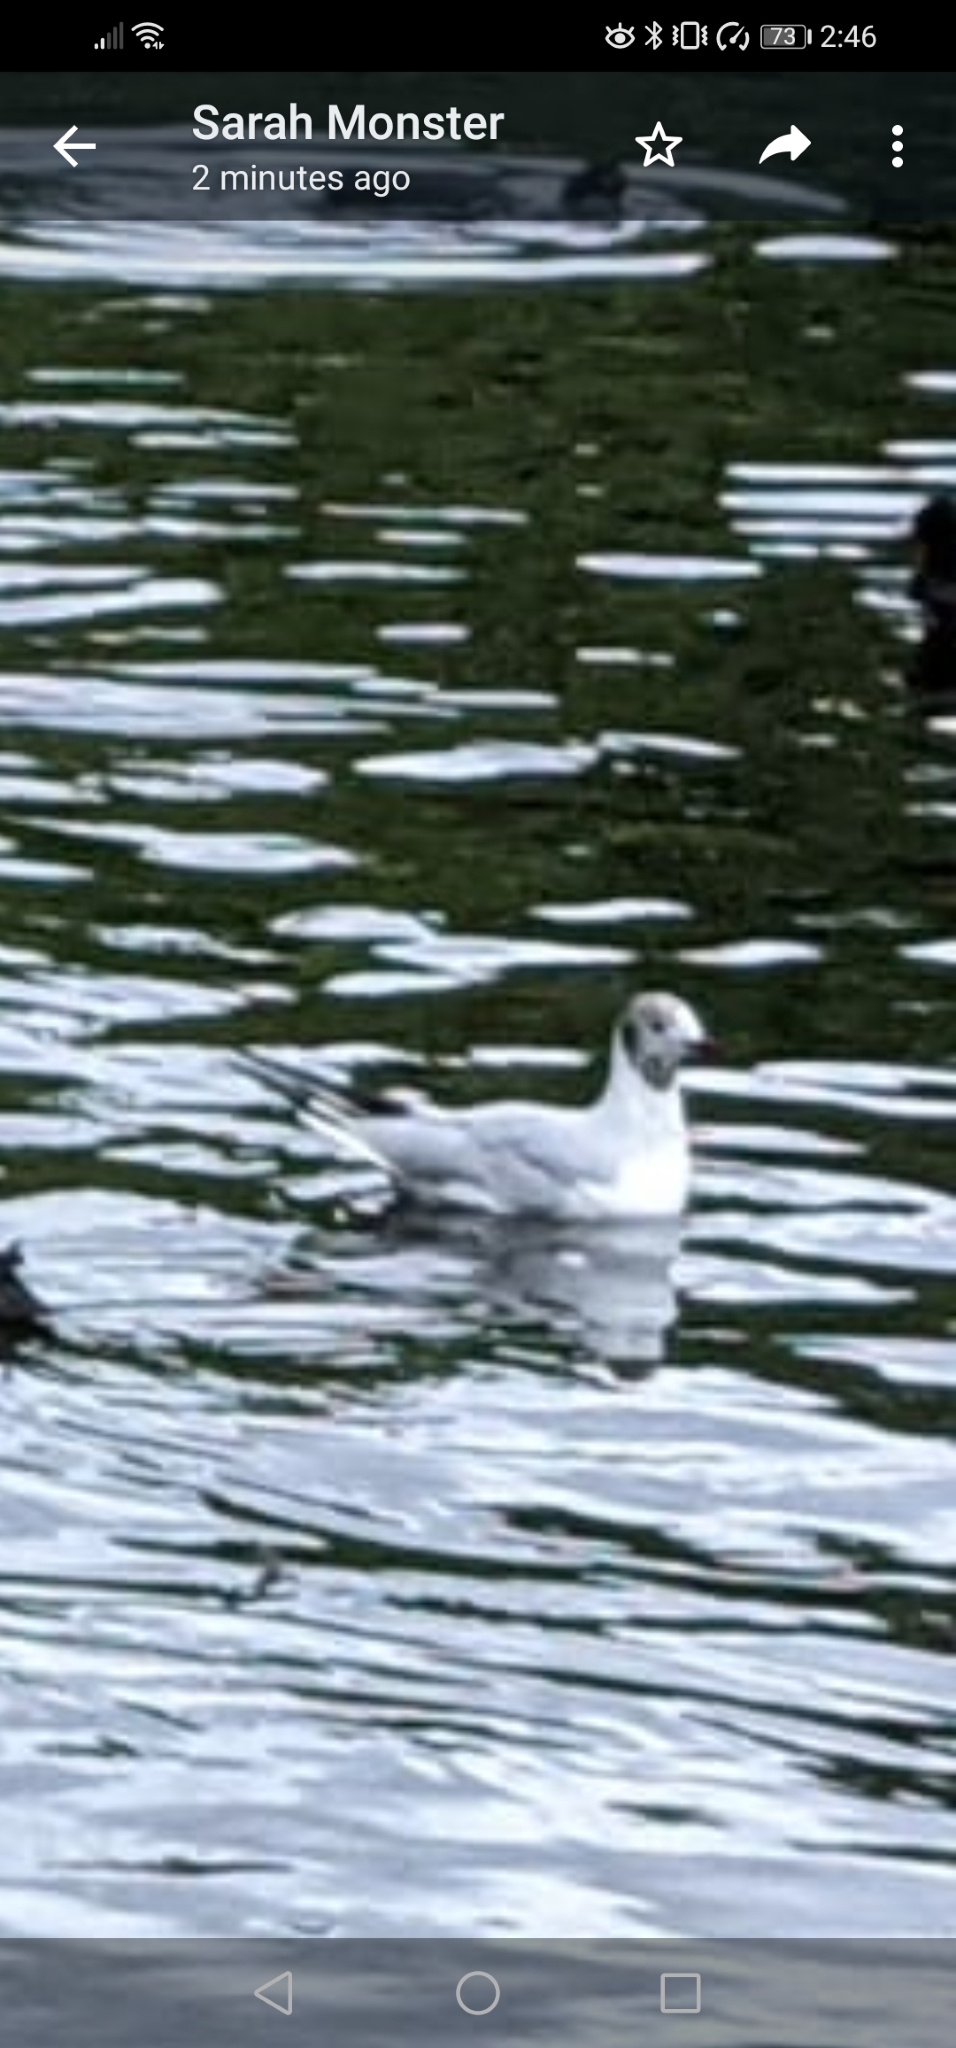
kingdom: Animalia
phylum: Chordata
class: Aves
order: Charadriiformes
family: Laridae
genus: Chroicocephalus
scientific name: Chroicocephalus ridibundus
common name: Black-headed gull
